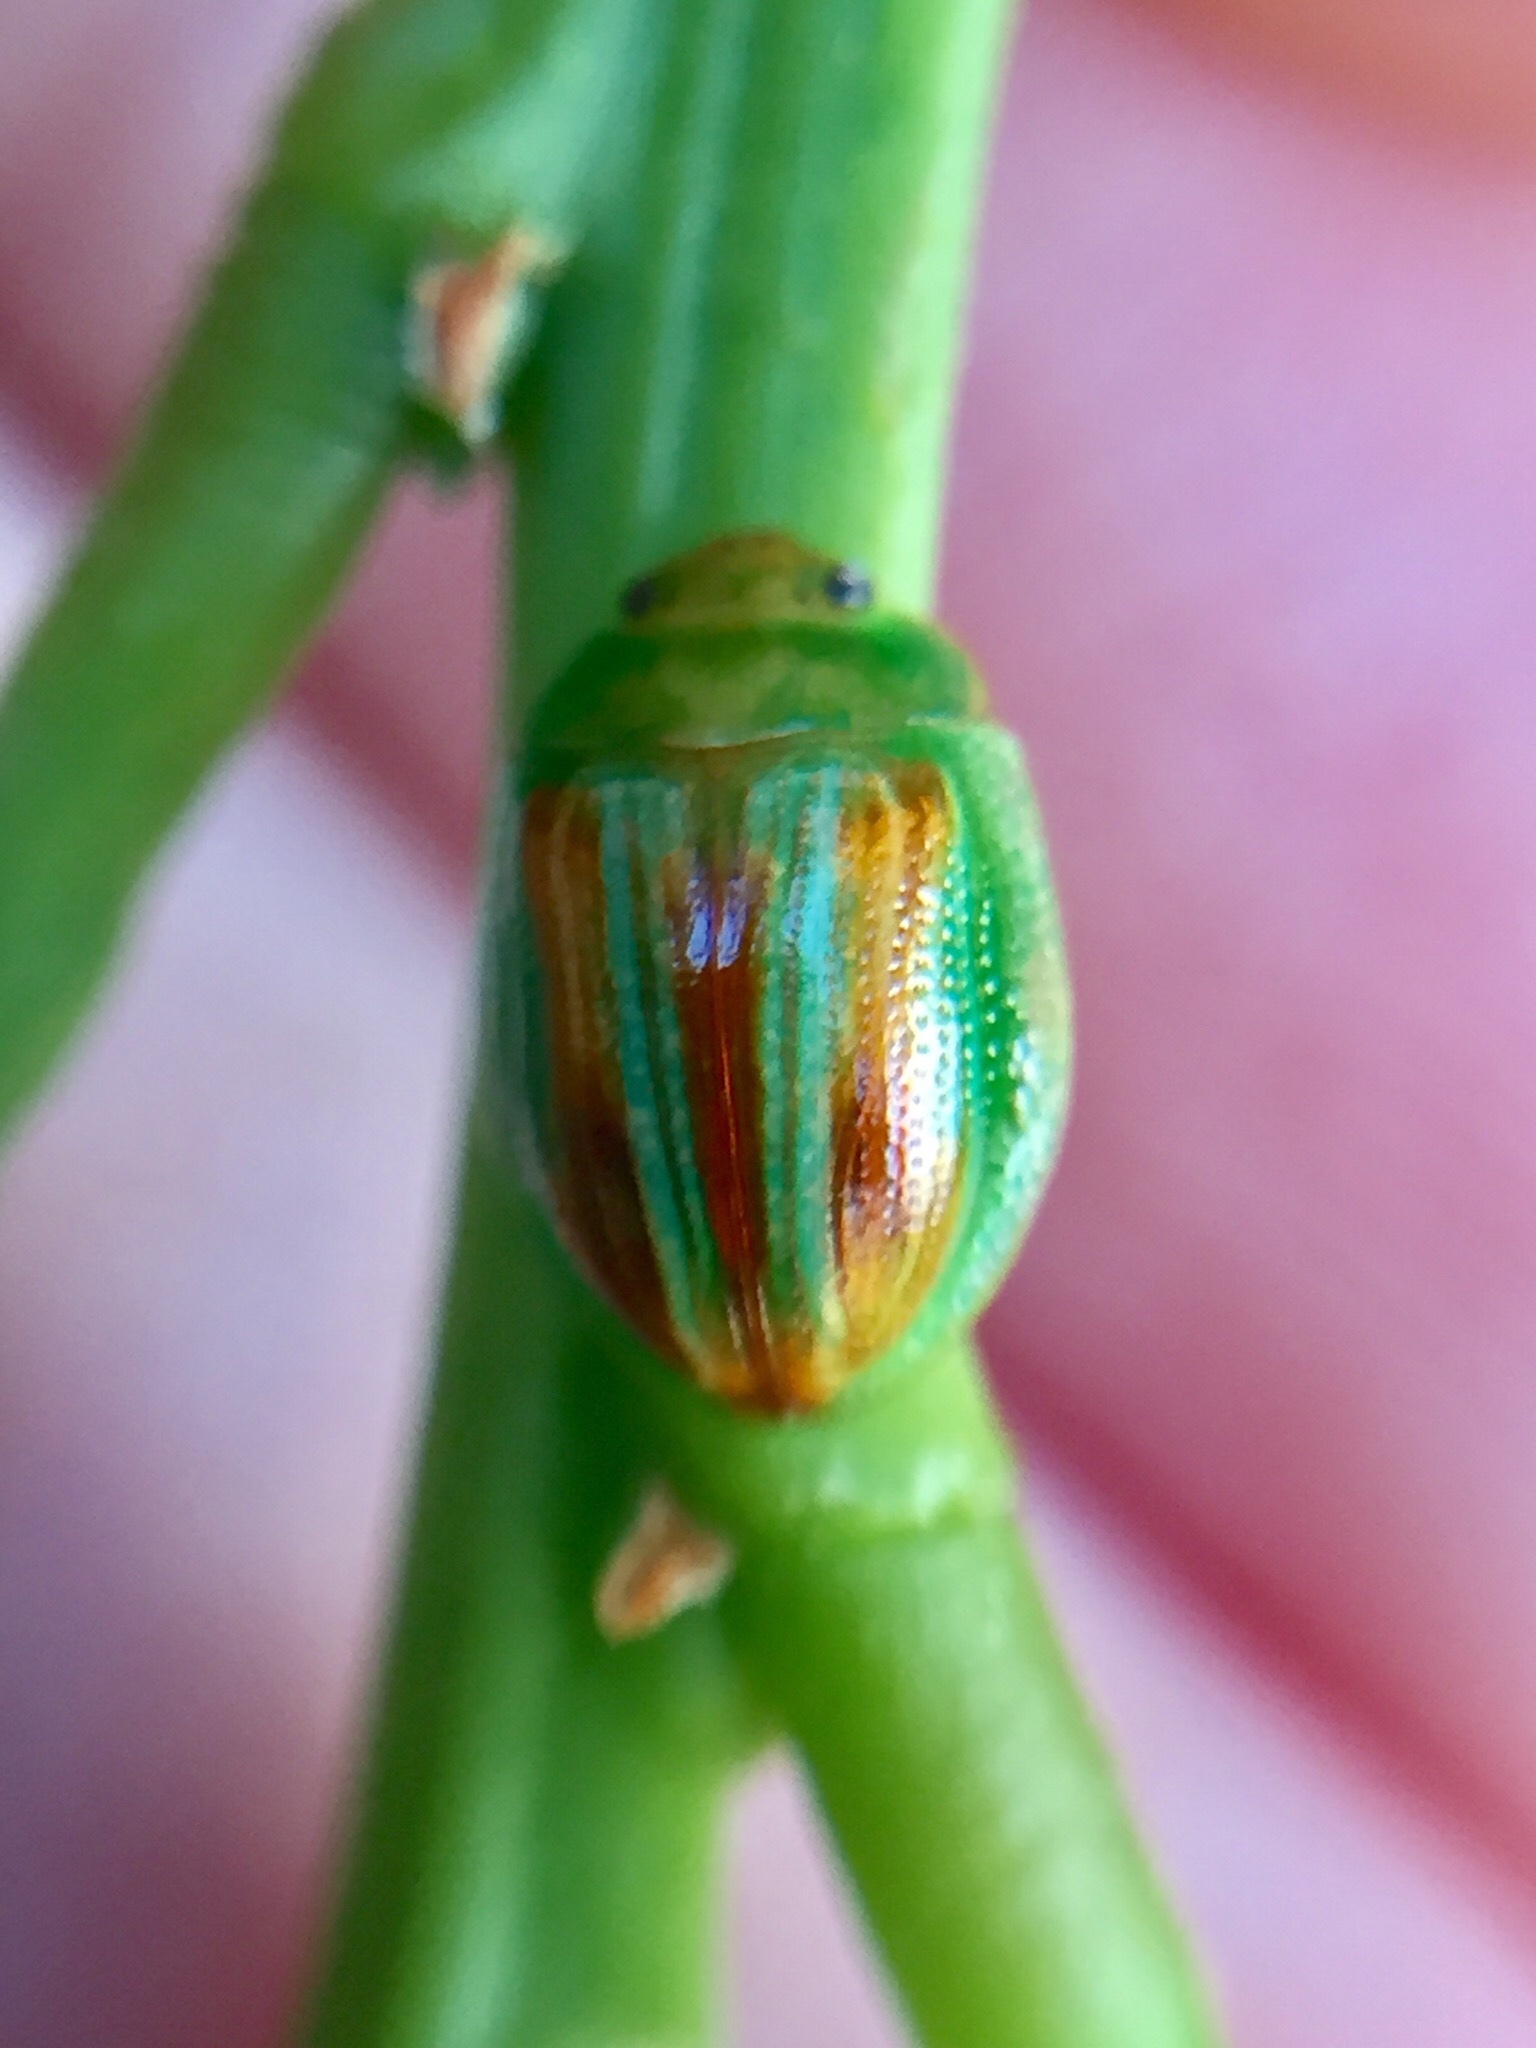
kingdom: Animalia
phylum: Arthropoda
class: Insecta
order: Coleoptera
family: Chrysomelidae
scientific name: Chrysomelidae
